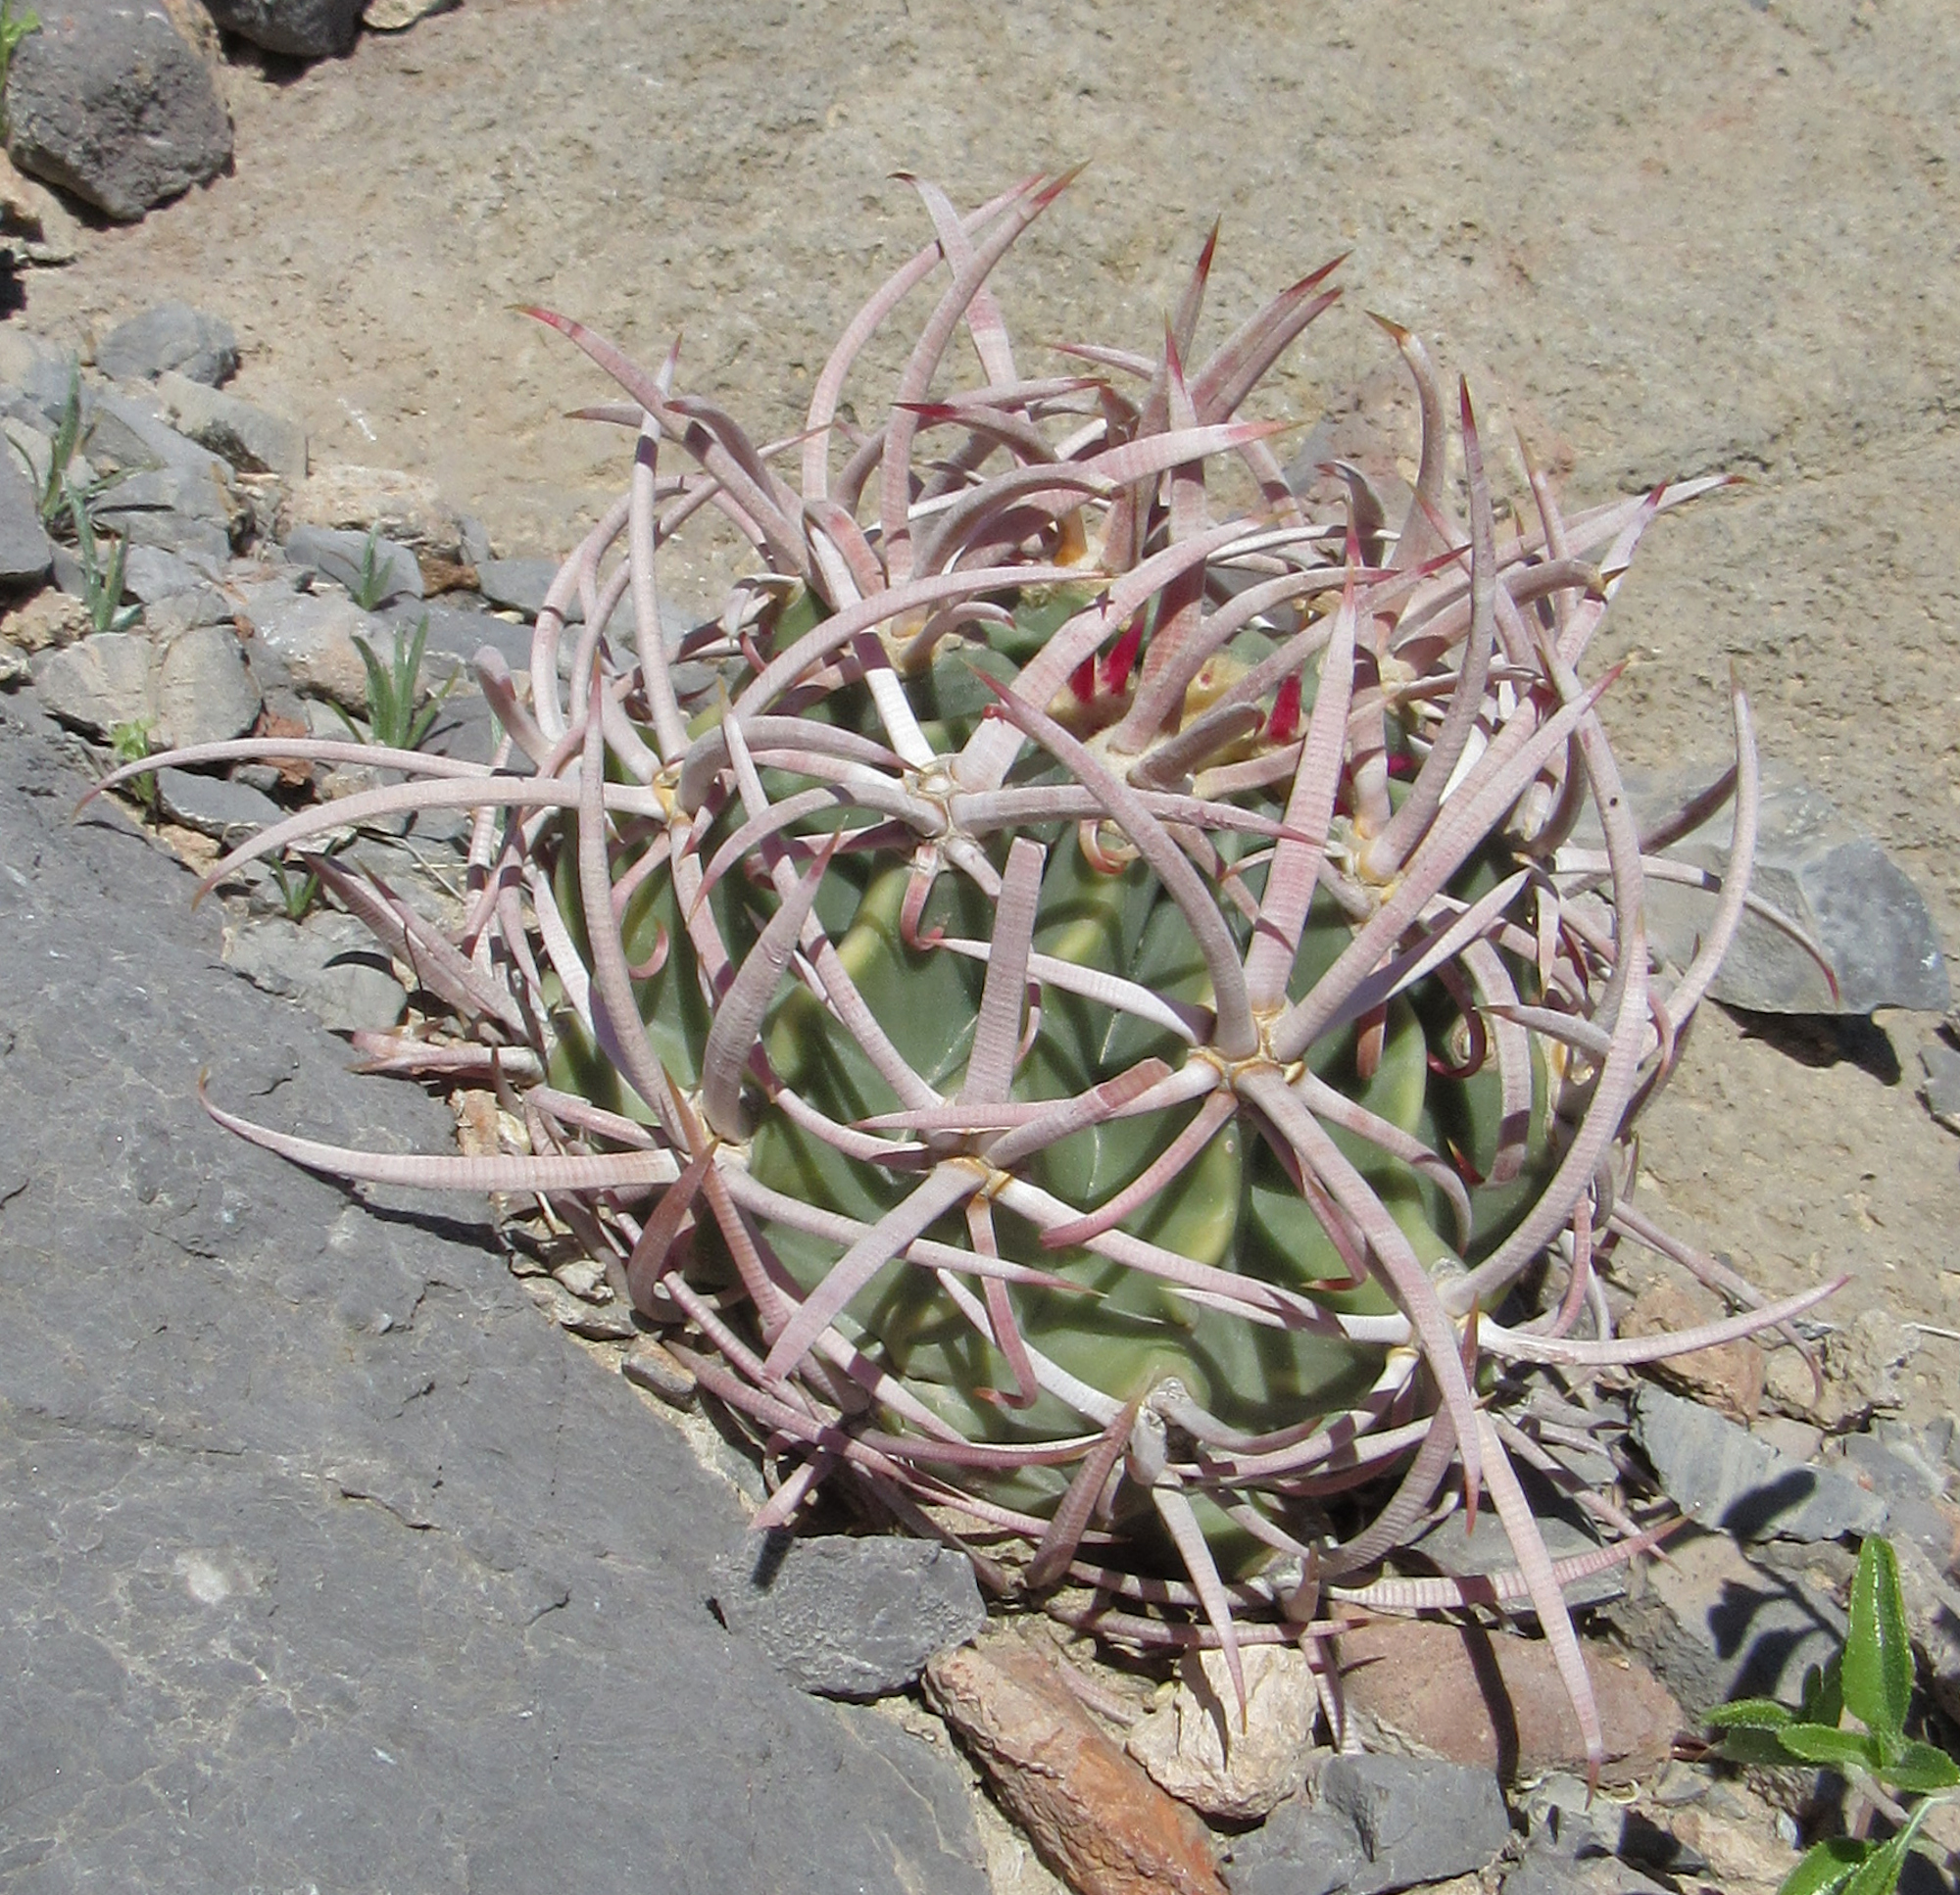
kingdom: Plantae
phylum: Tracheophyta
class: Magnoliopsida
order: Caryophyllales
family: Cactaceae
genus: Echinocactus
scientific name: Echinocactus polycephalus
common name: Cottontop cactus
